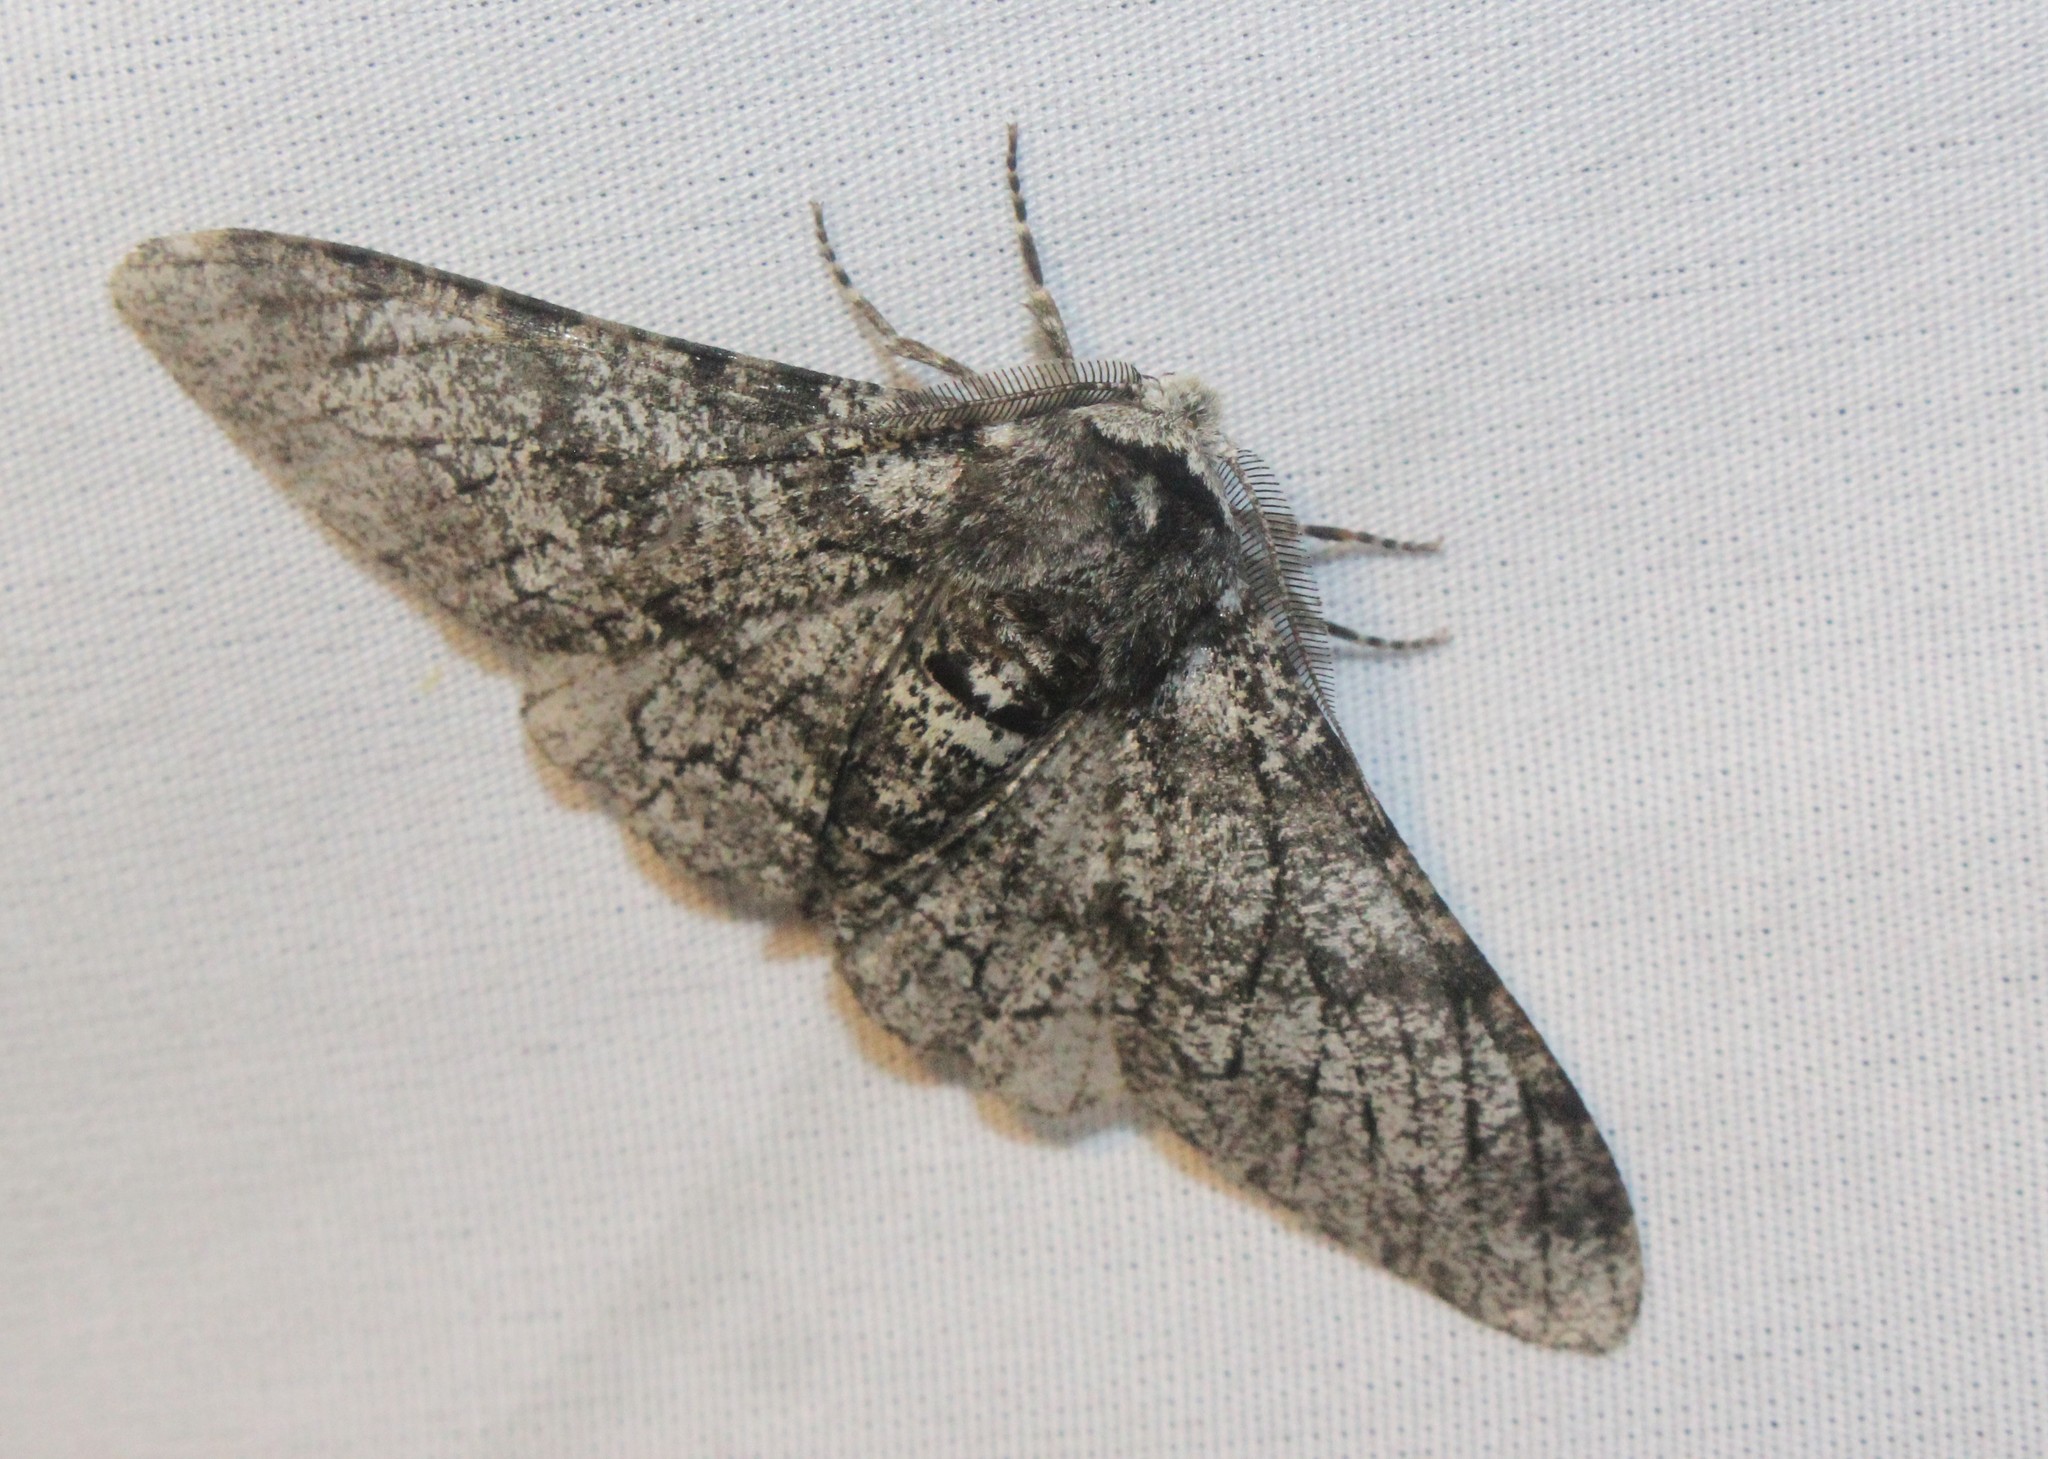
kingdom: Animalia
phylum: Arthropoda
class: Insecta
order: Lepidoptera
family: Geometridae
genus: Biston
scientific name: Biston betularia
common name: Peppered moth
